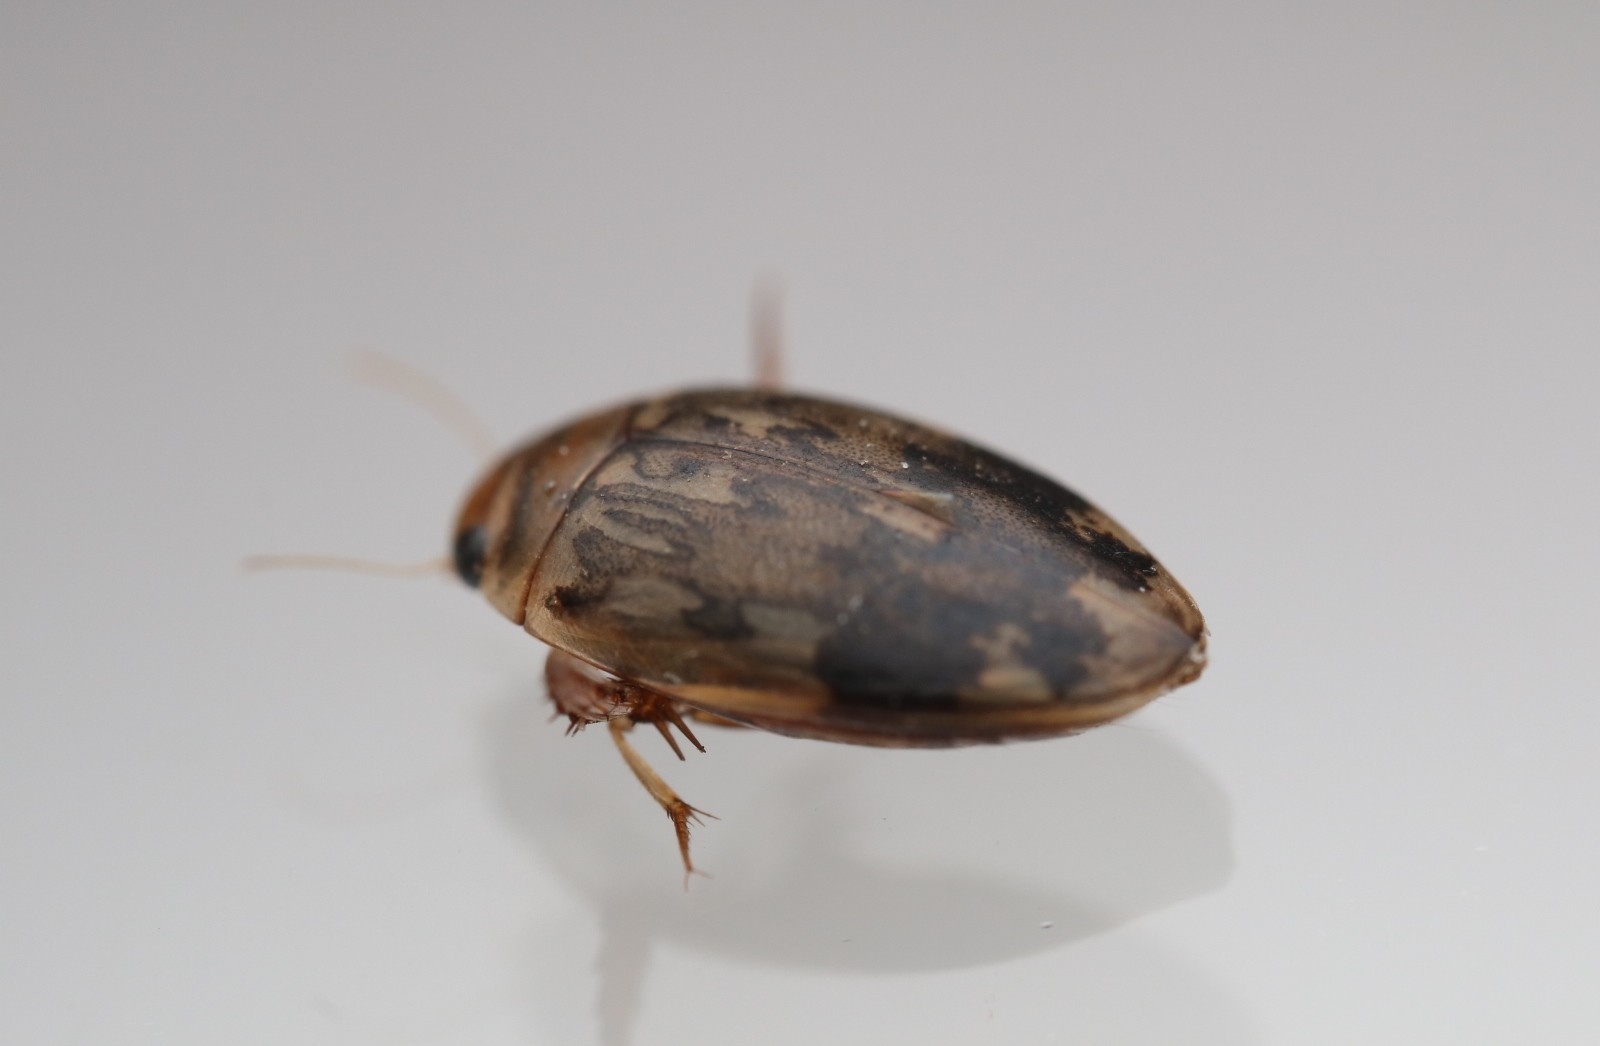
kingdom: Animalia
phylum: Arthropoda
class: Insecta
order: Coleoptera
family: Dytiscidae
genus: Laccophilus
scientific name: Laccophilus fasciatus
